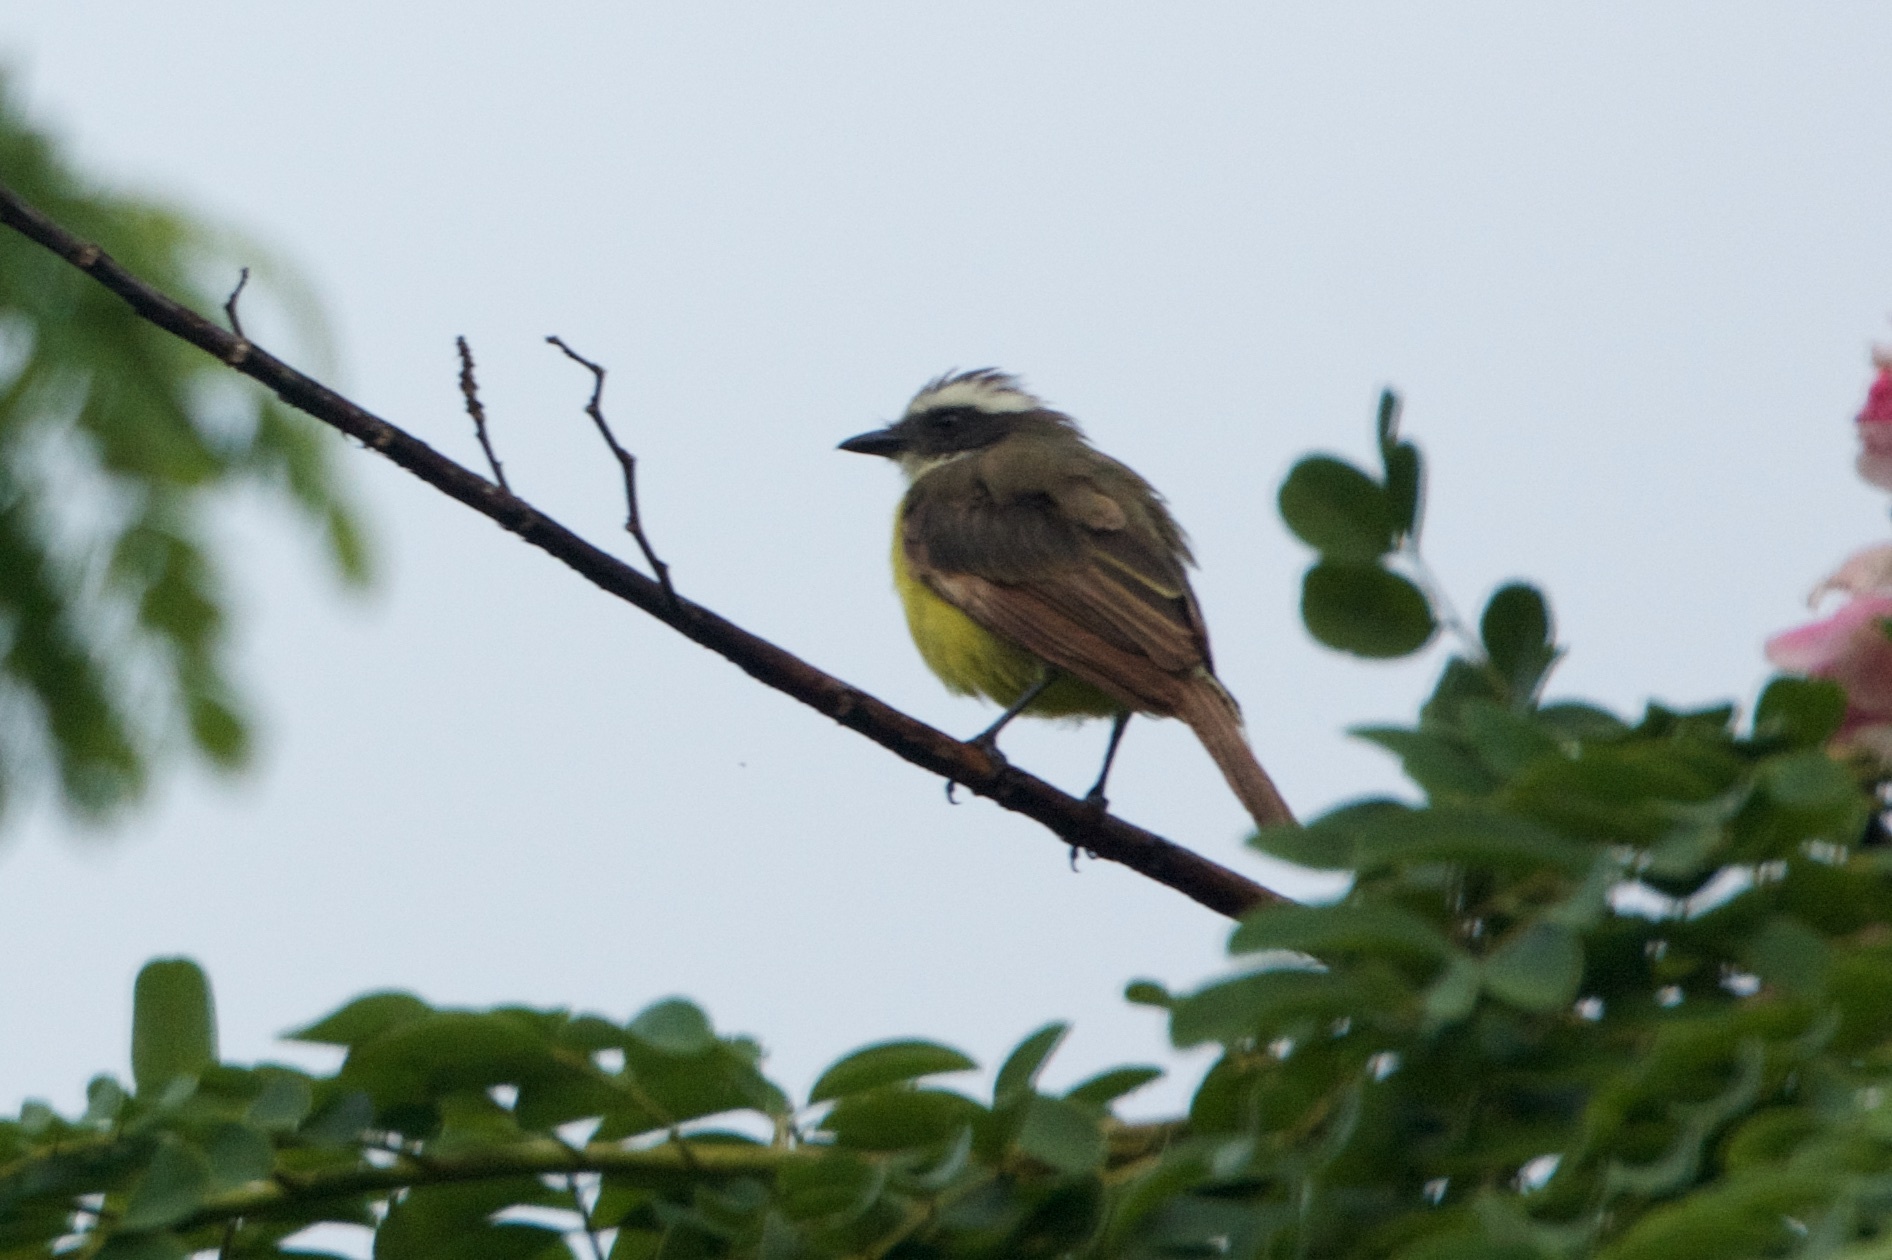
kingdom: Animalia
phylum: Chordata
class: Aves
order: Passeriformes
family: Tyrannidae
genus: Myiozetetes
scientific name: Myiozetetes similis
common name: Social flycatcher
